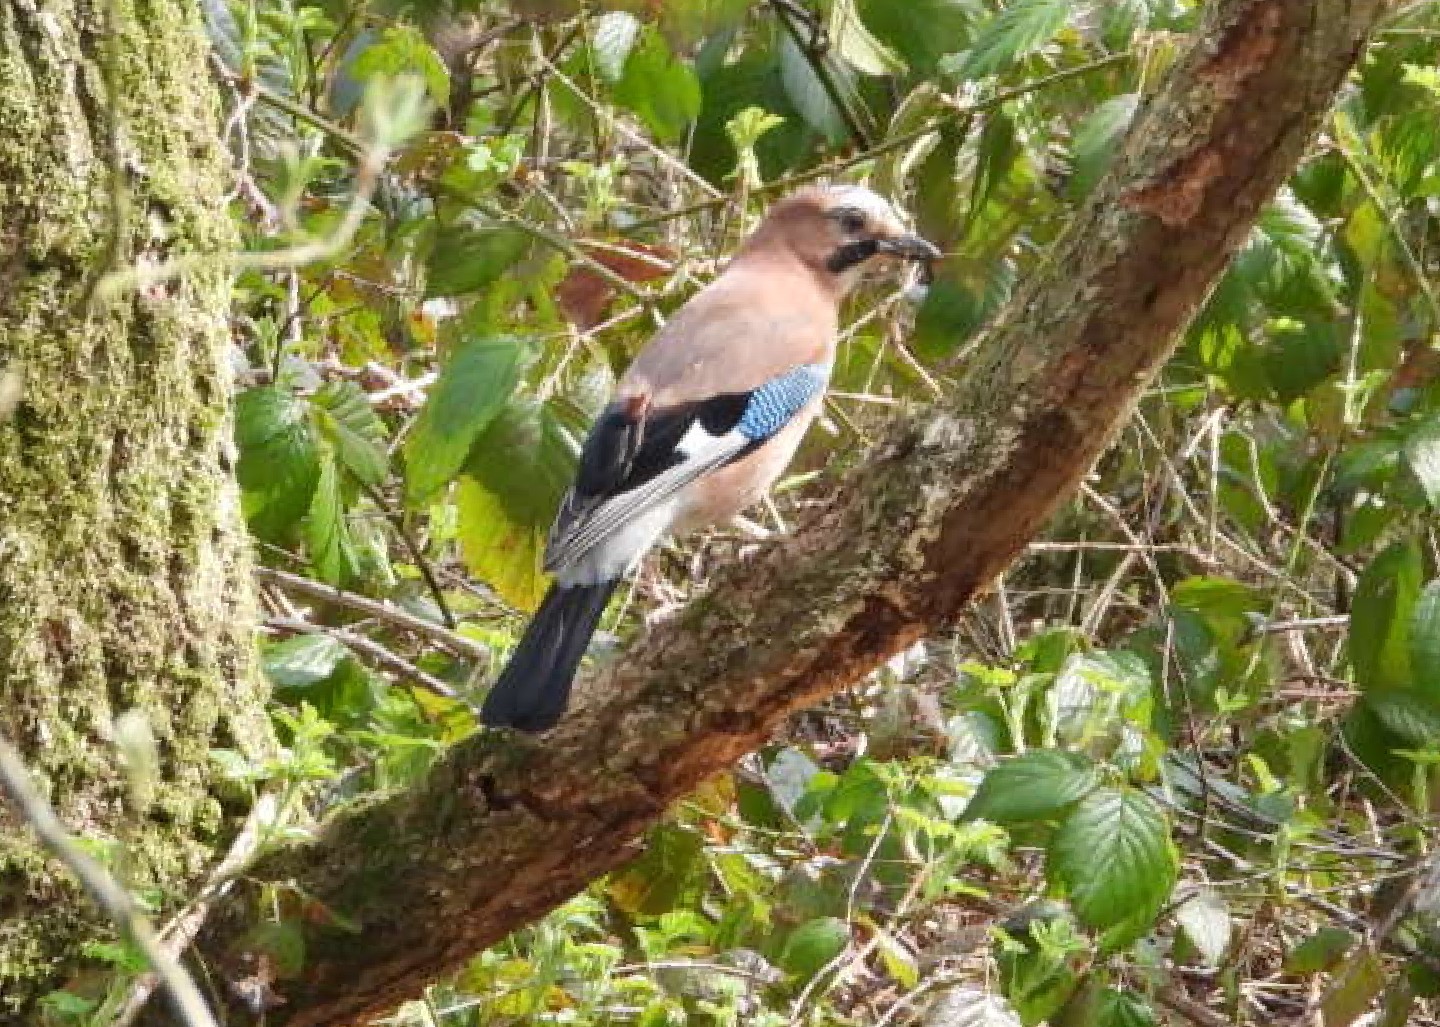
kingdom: Animalia
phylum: Chordata
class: Aves
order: Passeriformes
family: Corvidae
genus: Garrulus
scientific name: Garrulus glandarius
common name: Eurasian jay
